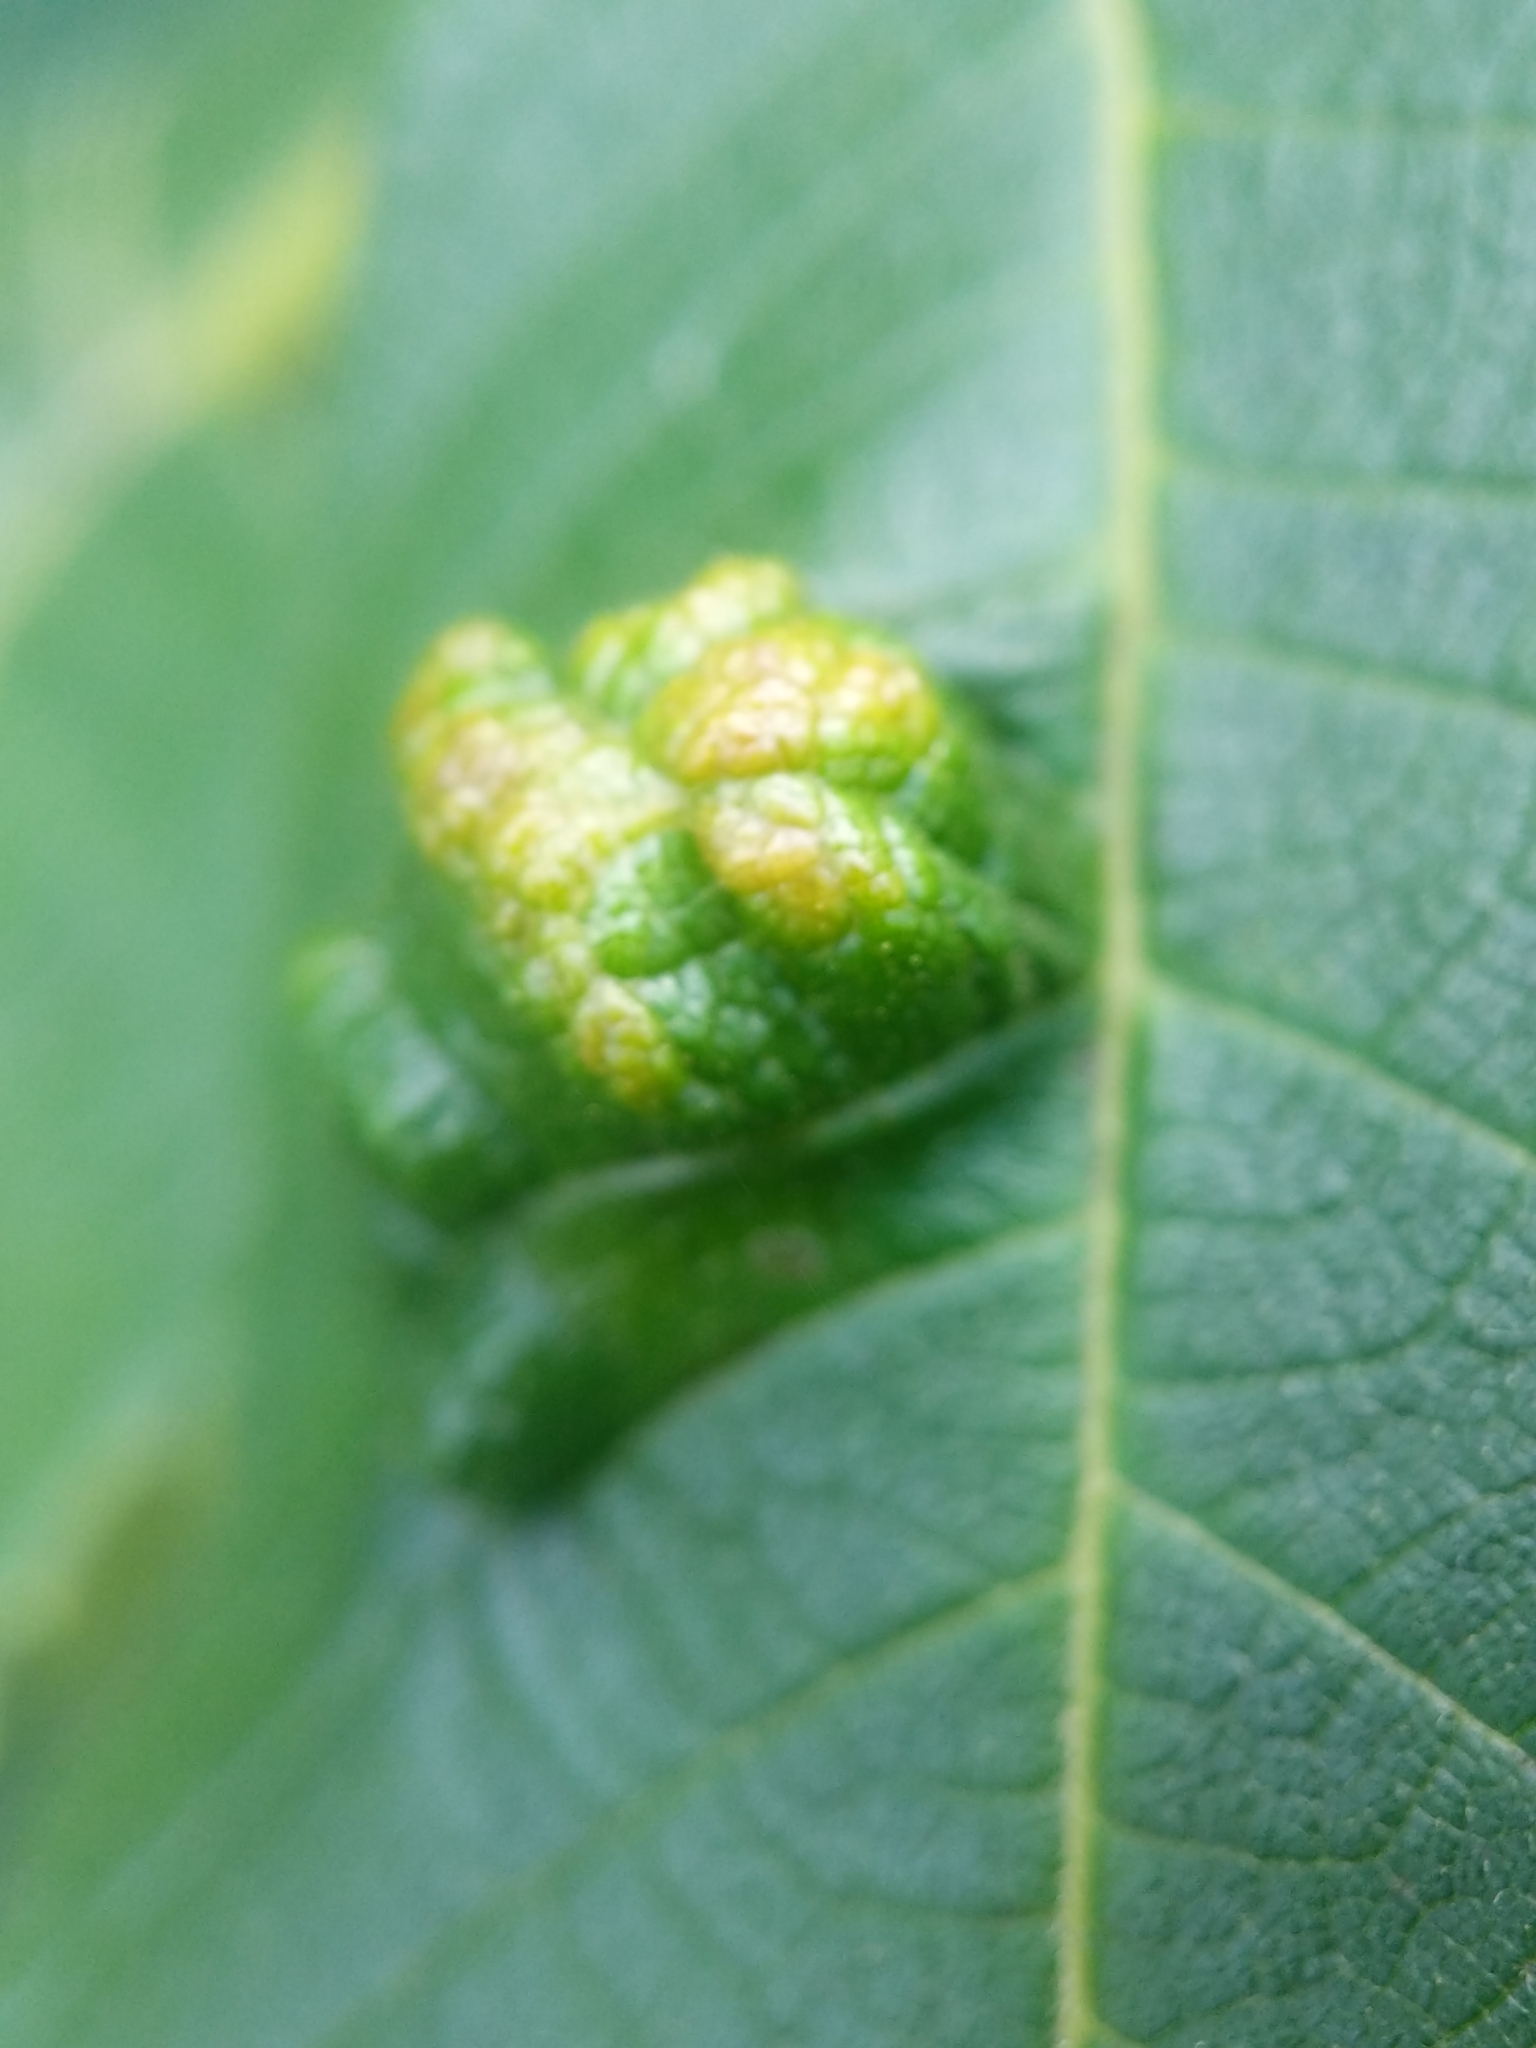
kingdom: Animalia
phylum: Arthropoda
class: Arachnida
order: Trombidiformes
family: Eriophyidae
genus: Aceria
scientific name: Aceria
